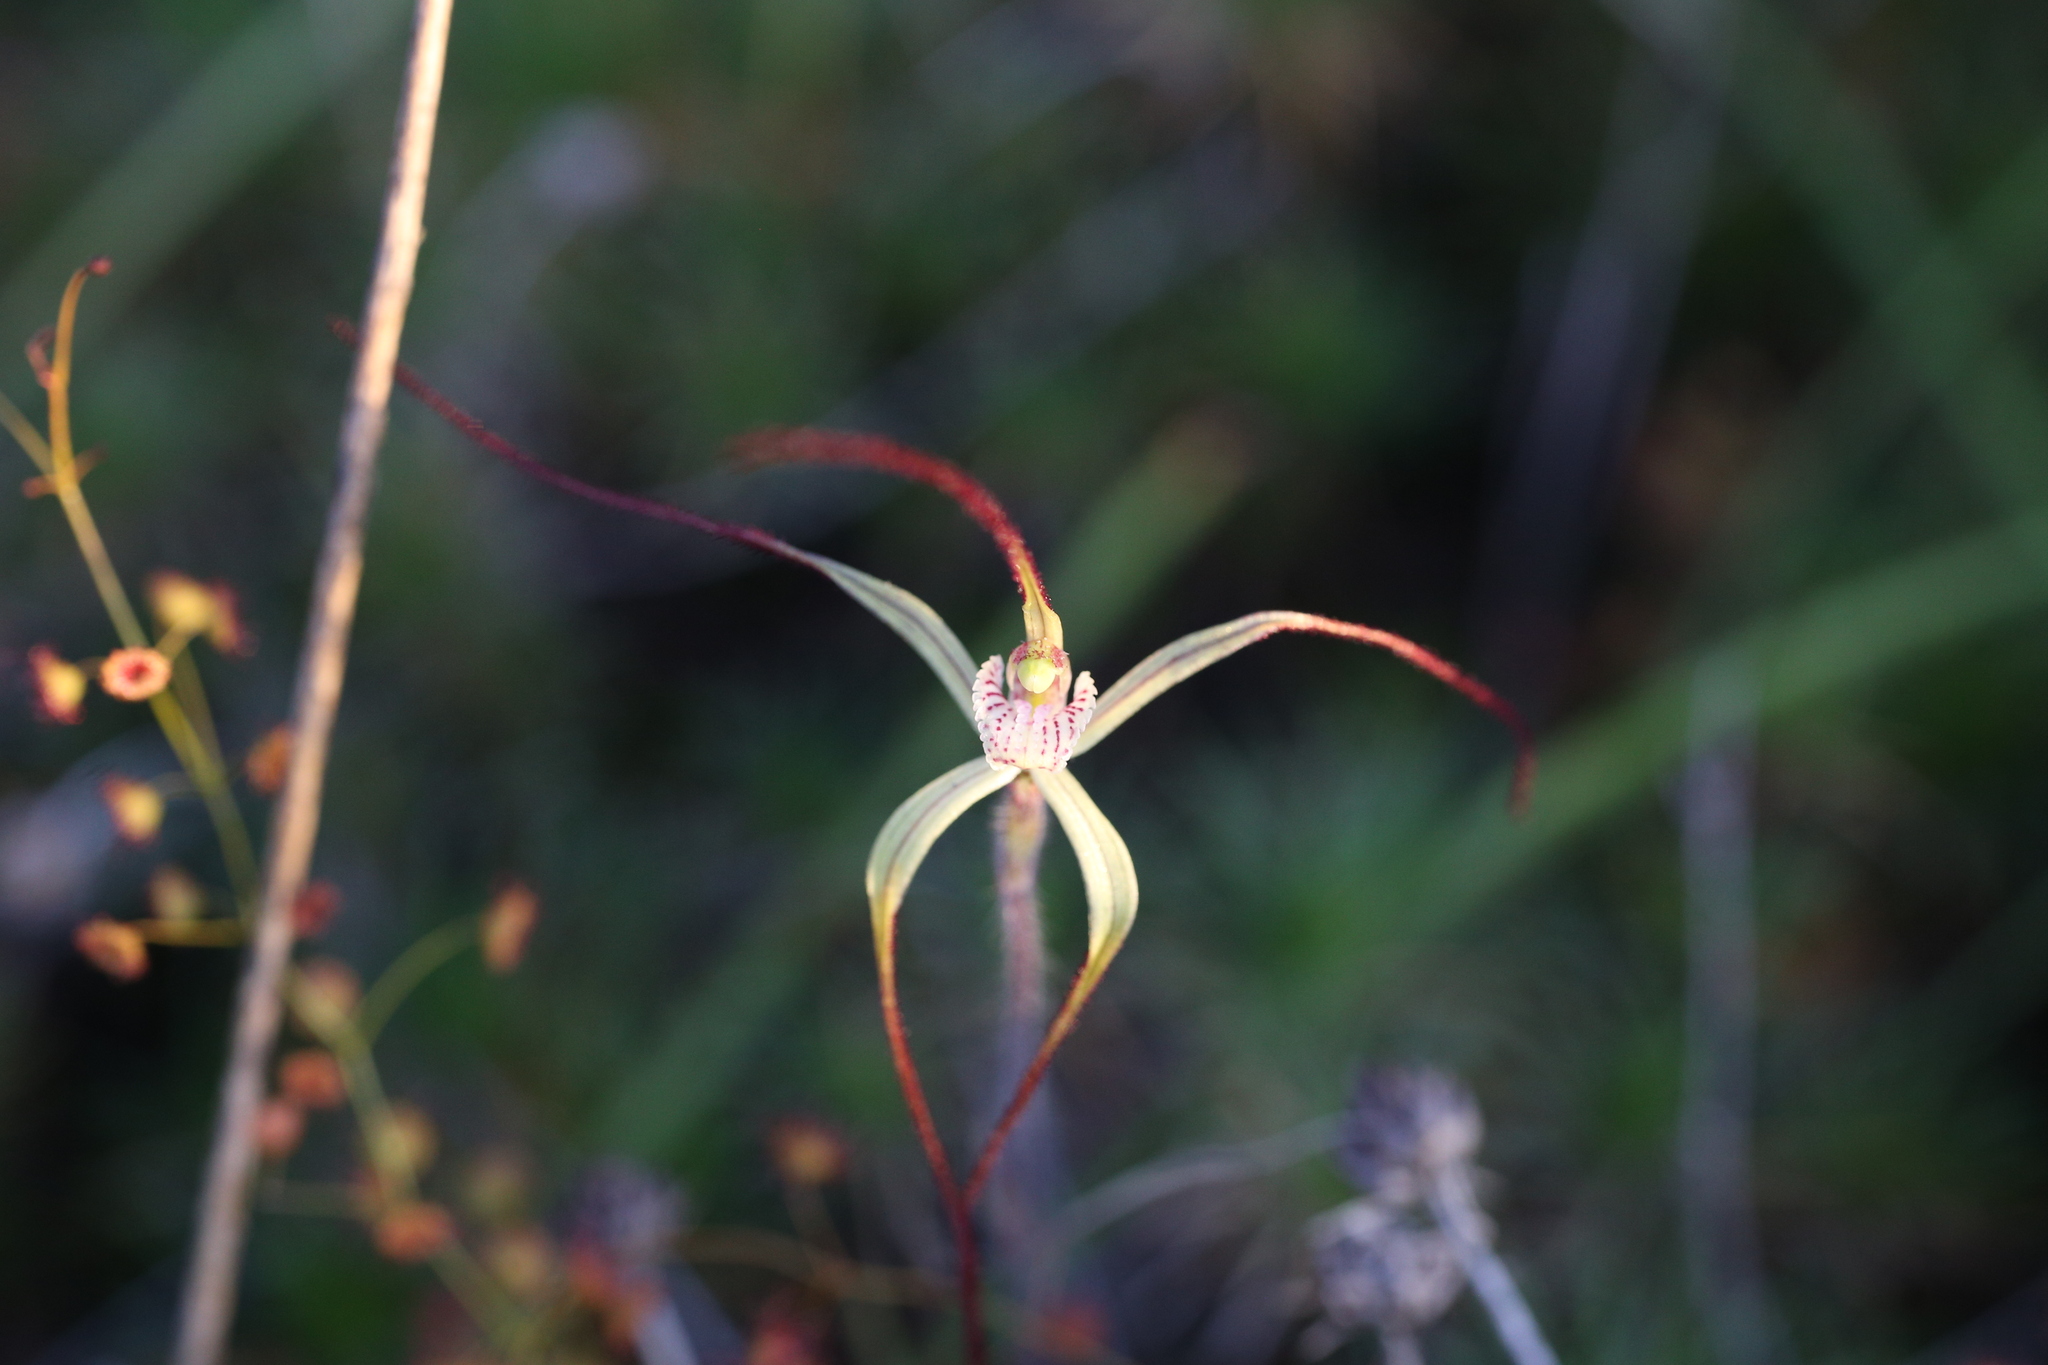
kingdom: Plantae
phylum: Tracheophyta
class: Liliopsida
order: Asparagales
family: Orchidaceae
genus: Caladenia
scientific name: Caladenia dimidia
